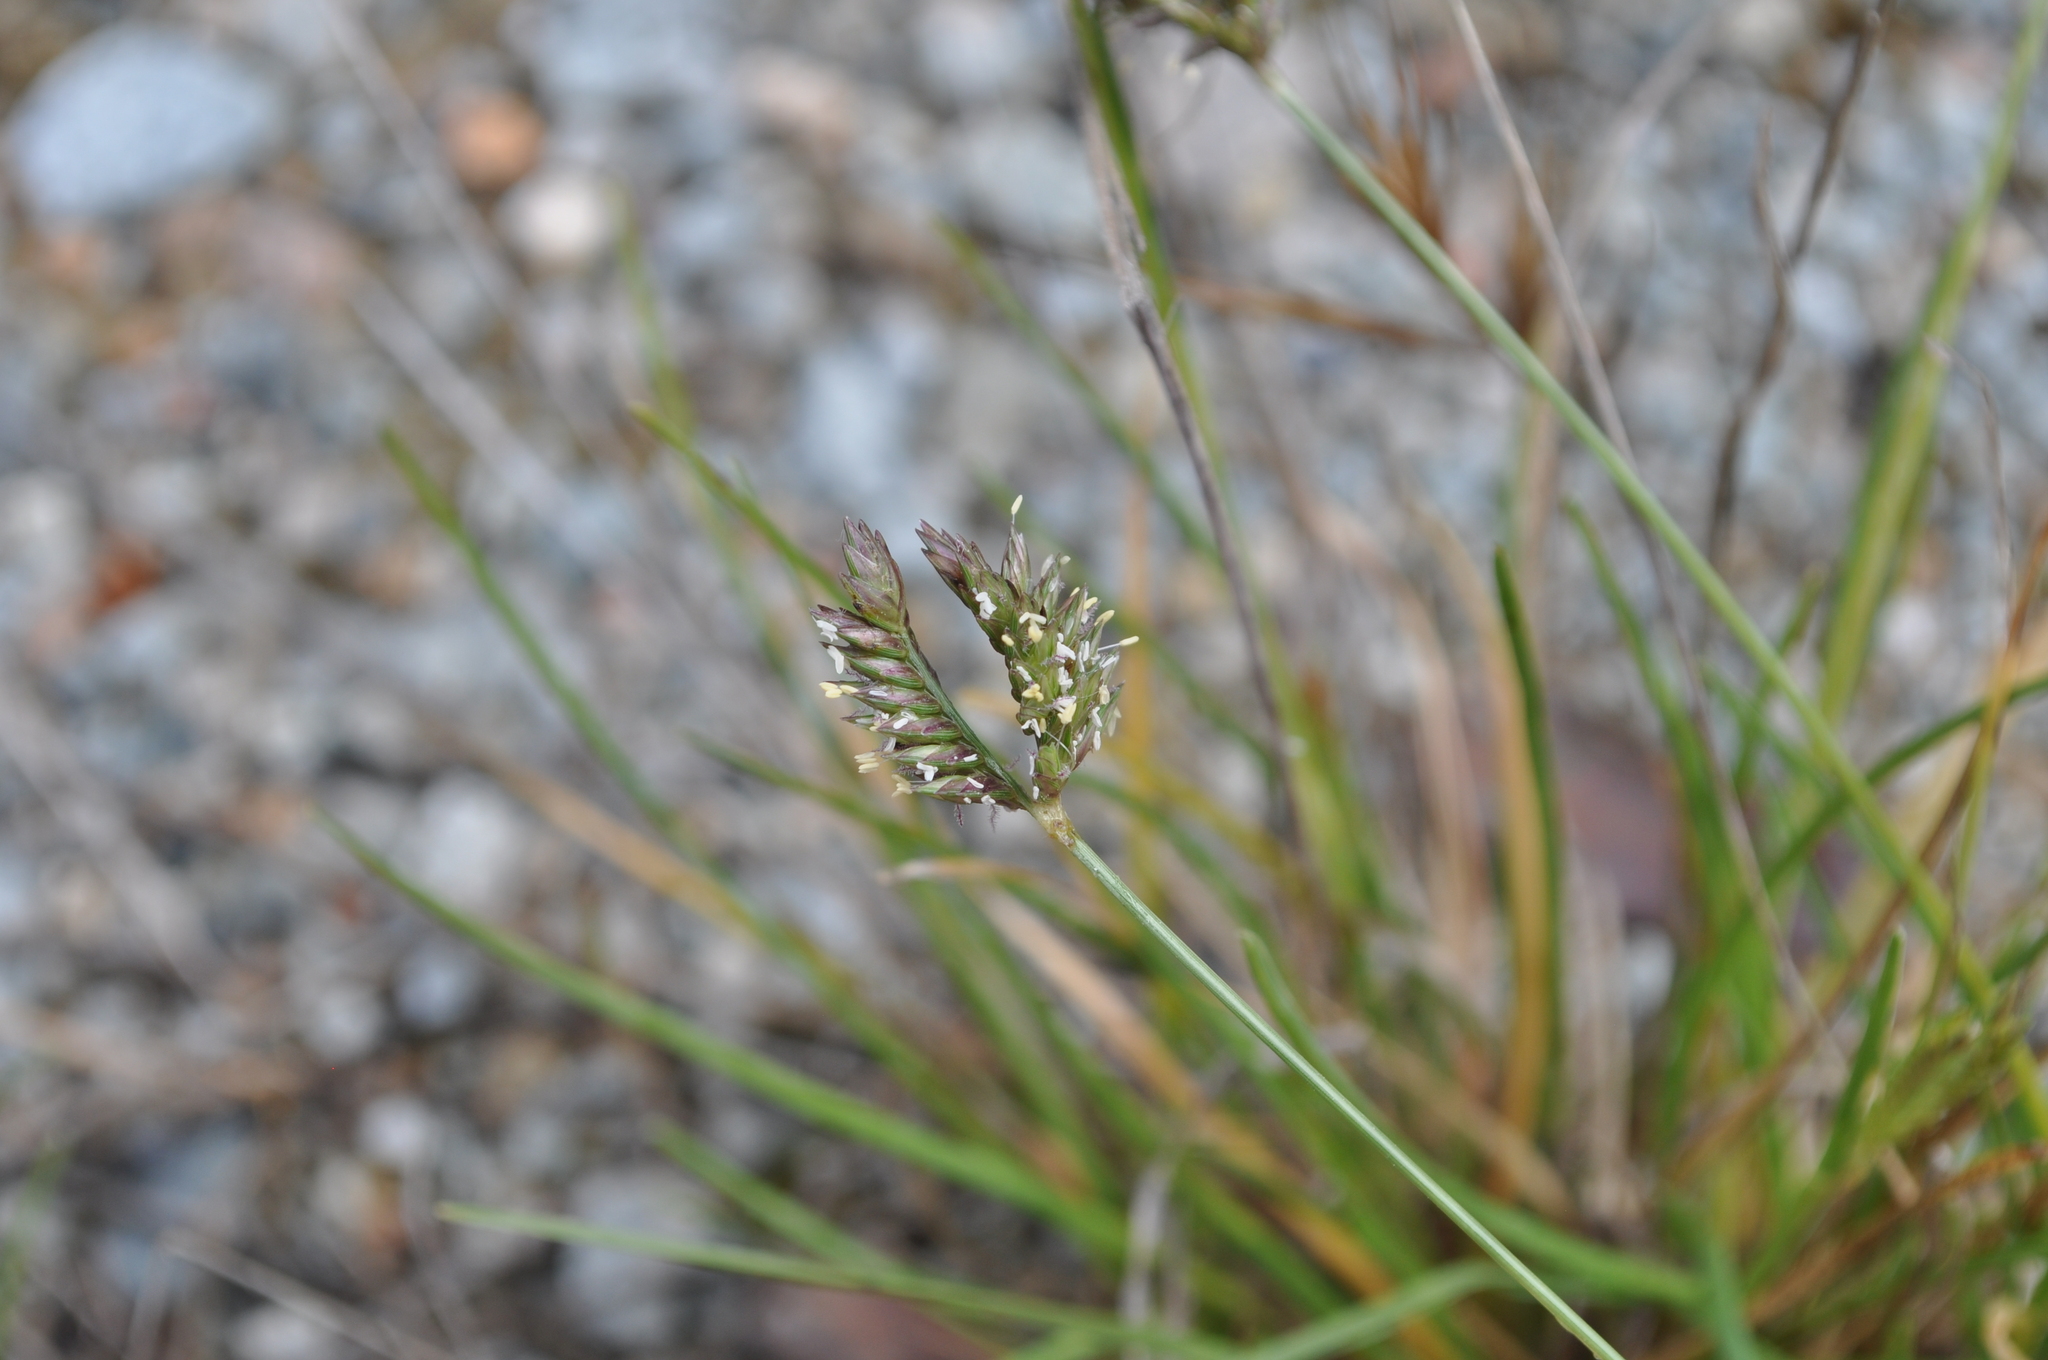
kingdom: Plantae
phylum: Tracheophyta
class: Liliopsida
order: Poales
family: Poaceae
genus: Eleusine
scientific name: Eleusine tristachya
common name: American yard-grass
